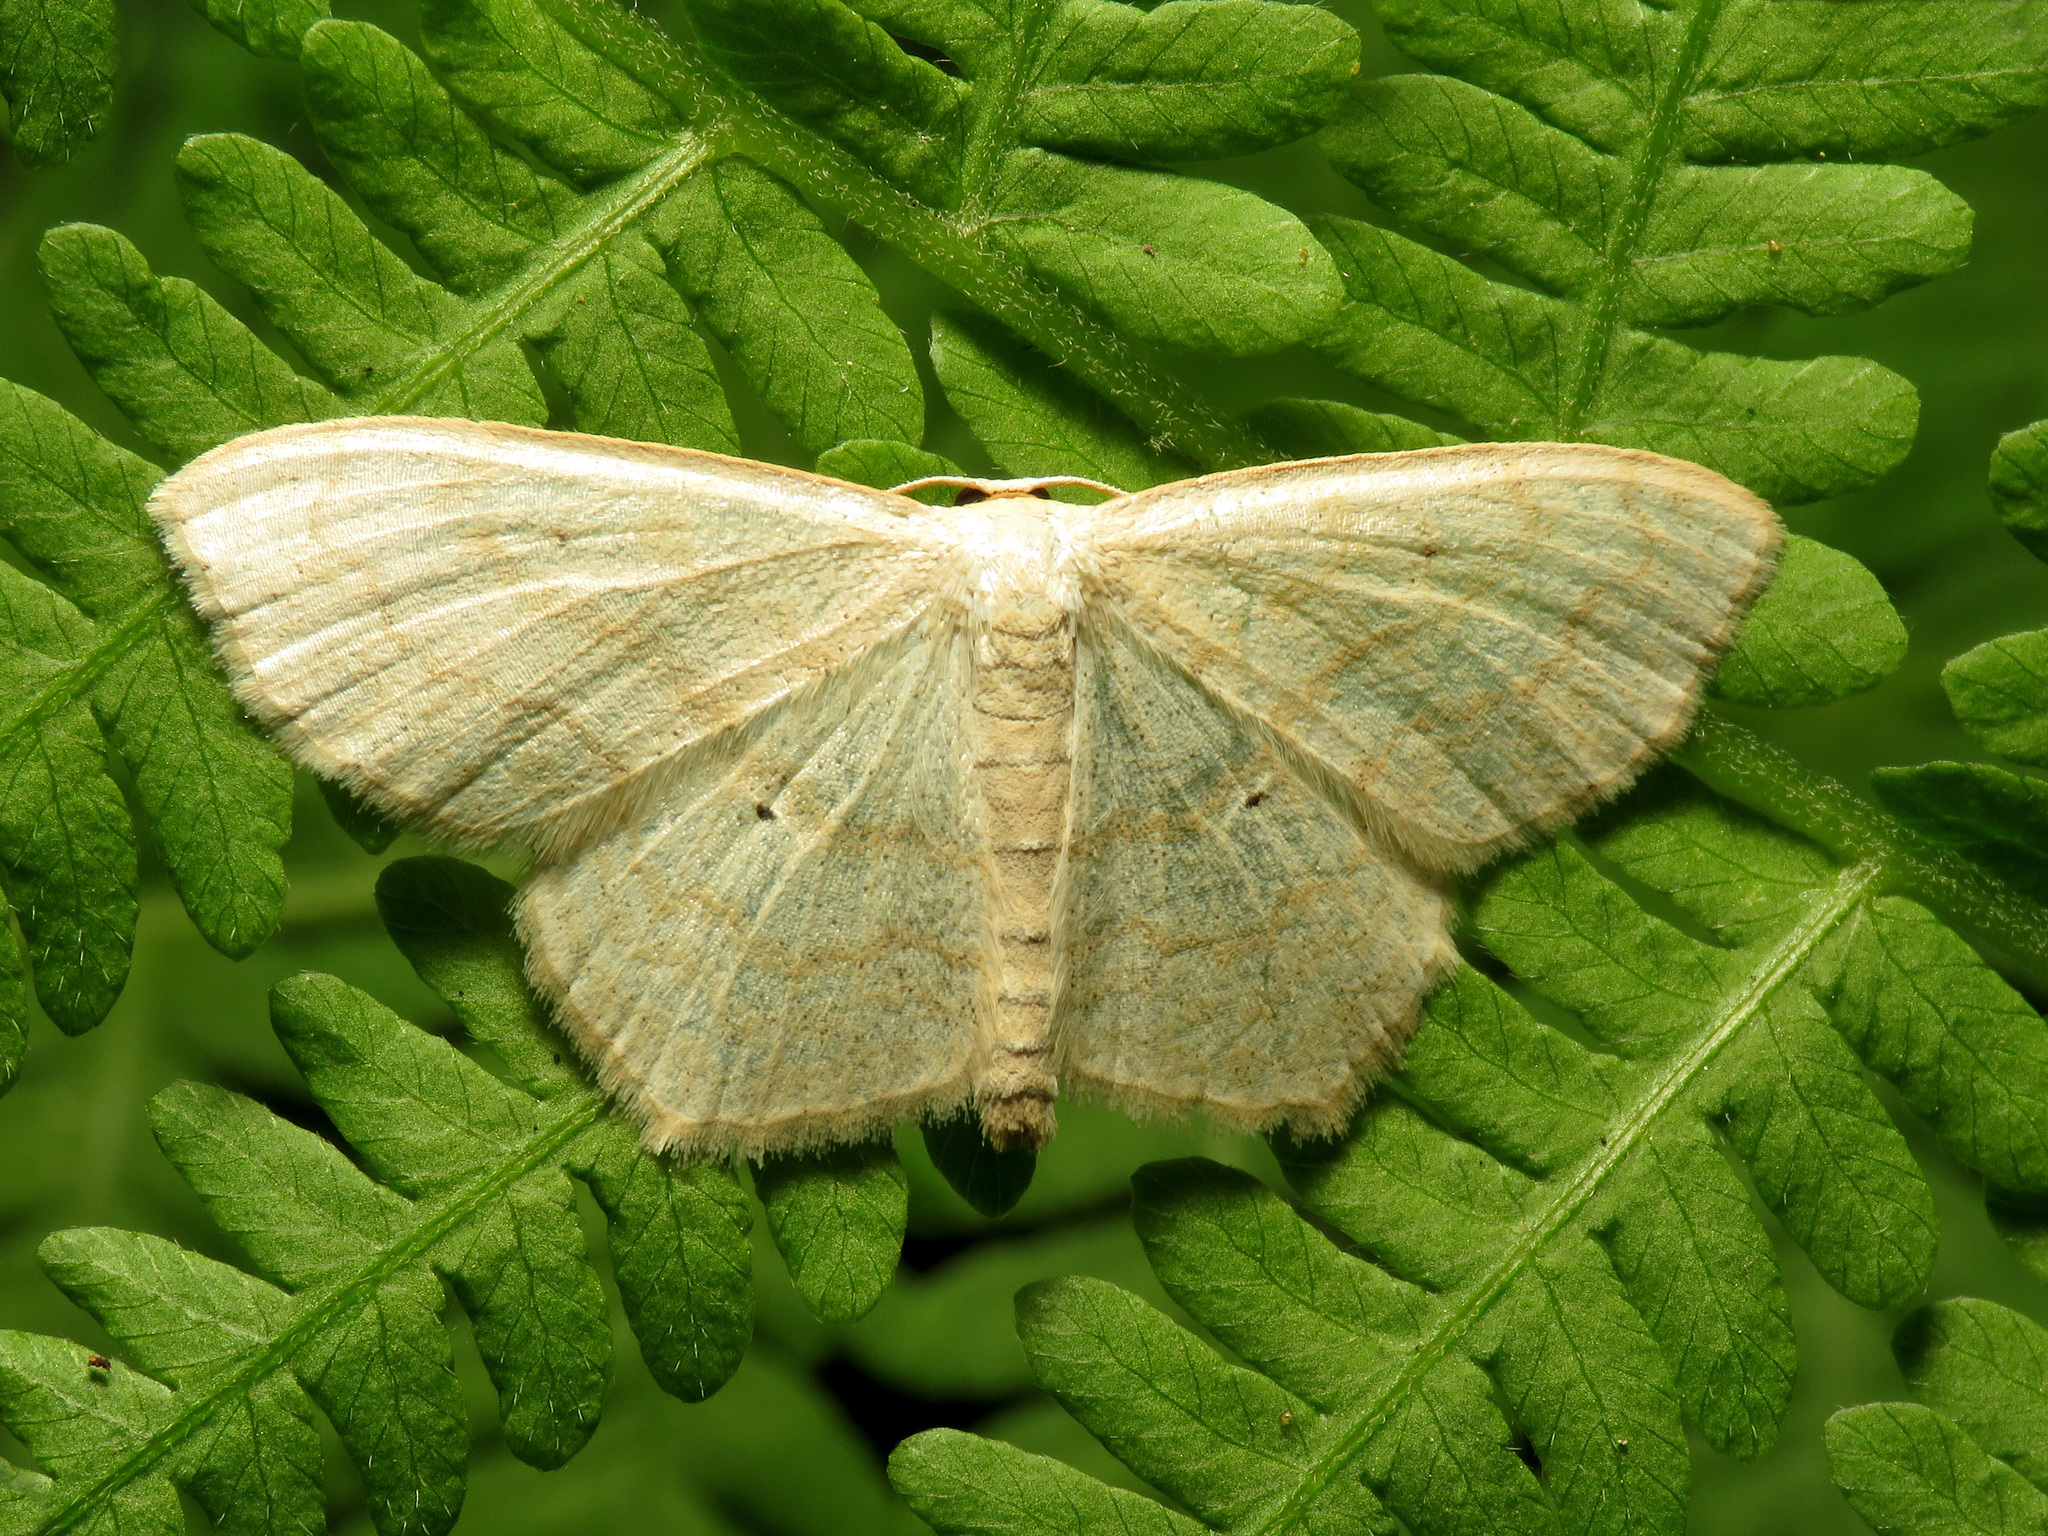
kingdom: Animalia
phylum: Arthropoda
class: Insecta
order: Lepidoptera
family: Geometridae
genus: Scopula
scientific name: Scopula limboundata
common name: Large lace border
